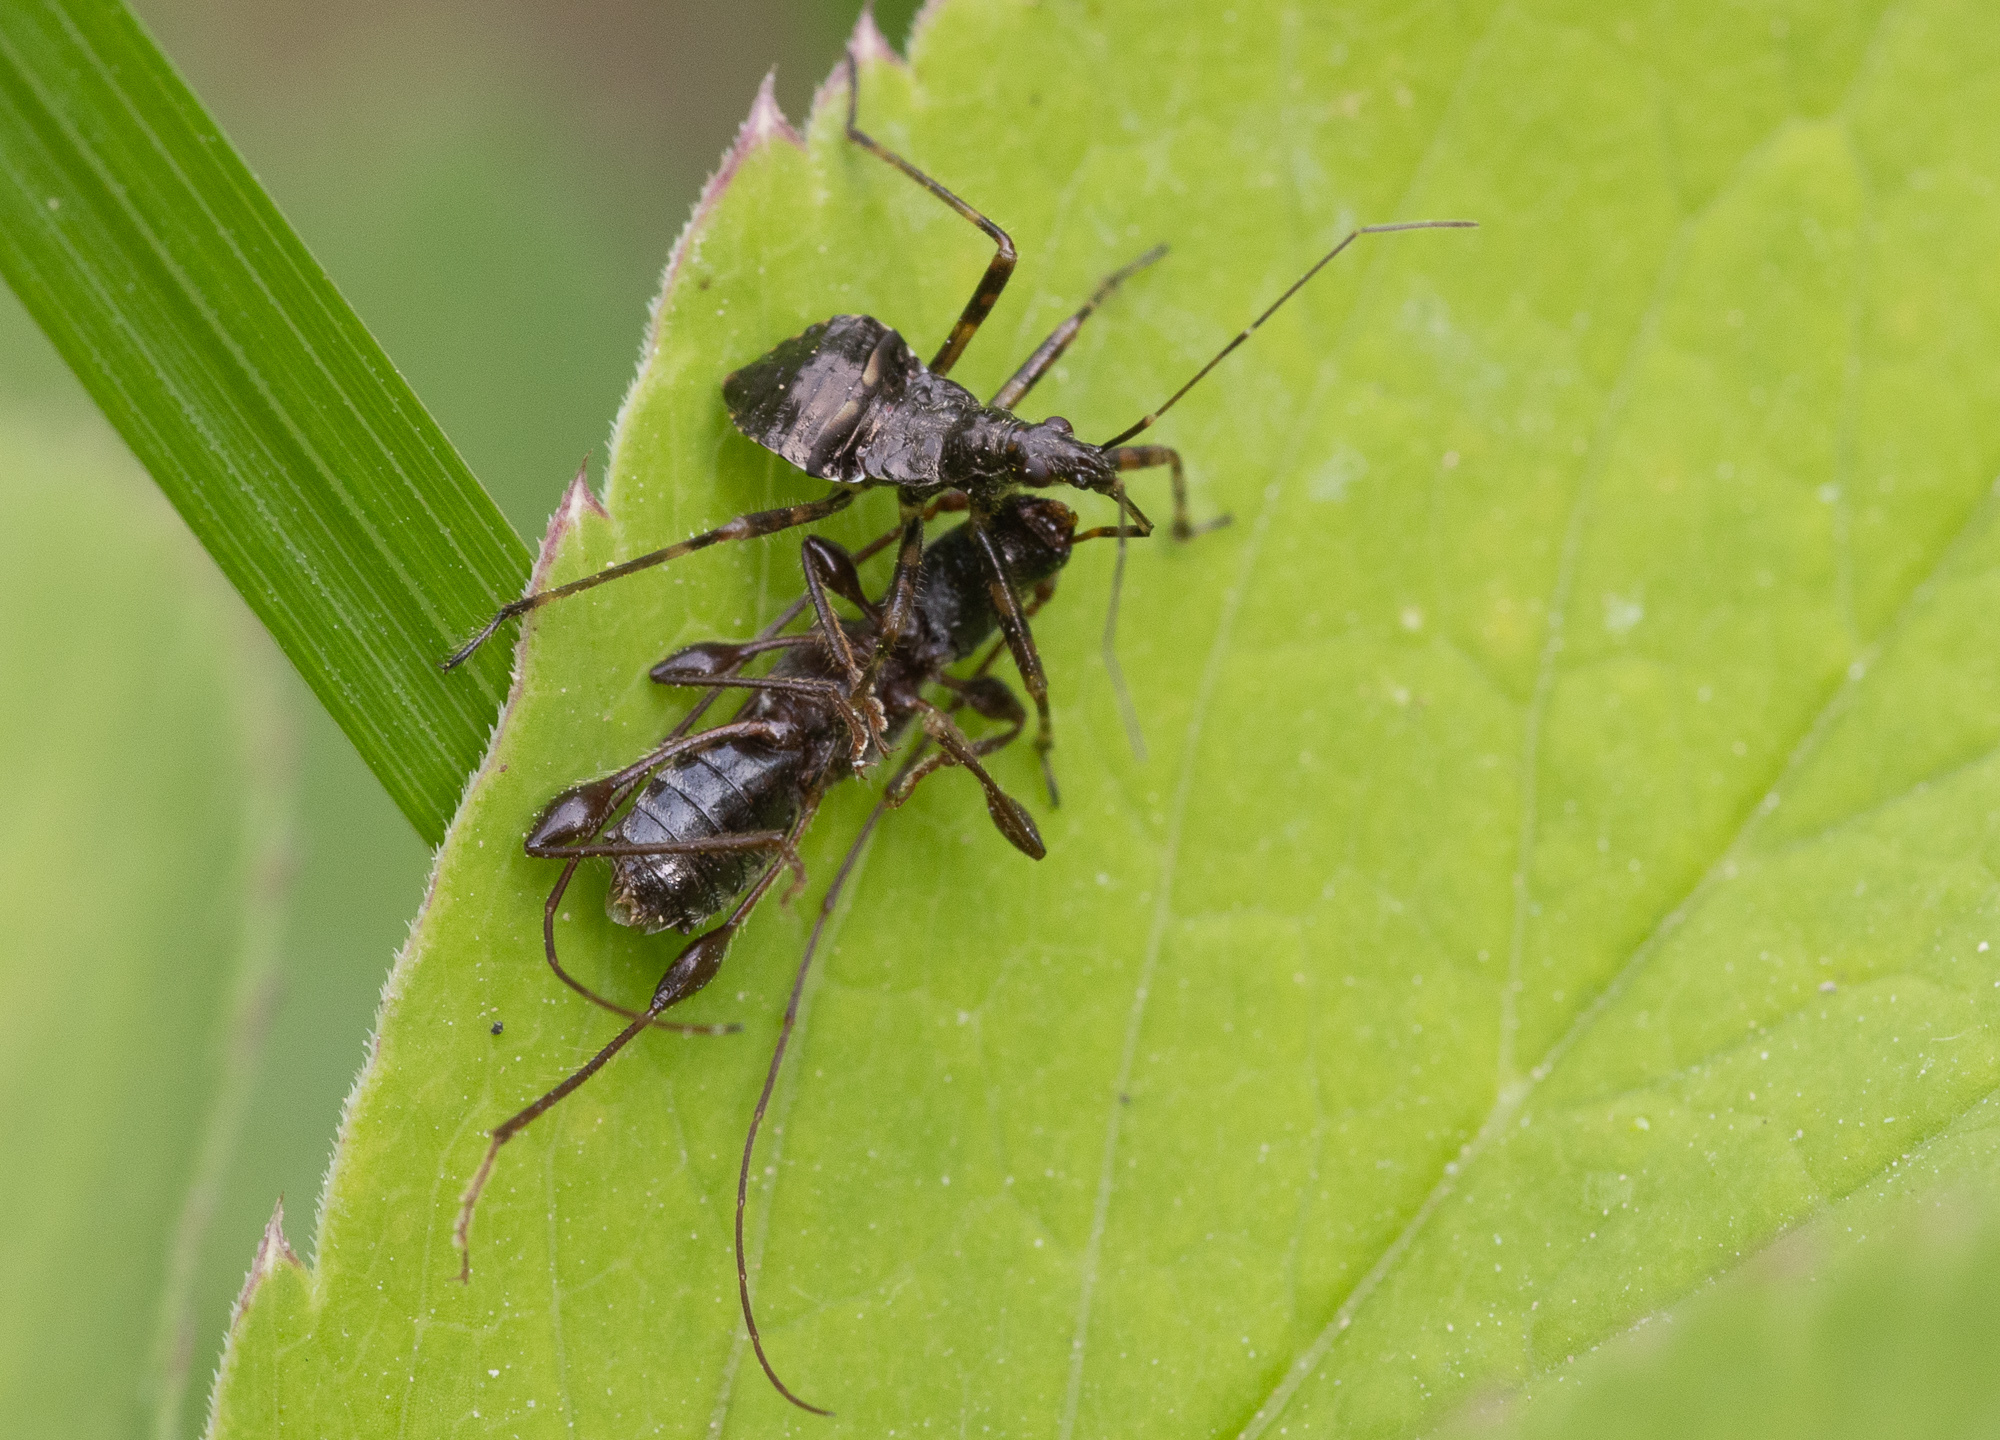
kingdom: Animalia
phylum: Arthropoda
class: Insecta
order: Coleoptera
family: Cerambycidae
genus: Molorchus
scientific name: Molorchus minor
